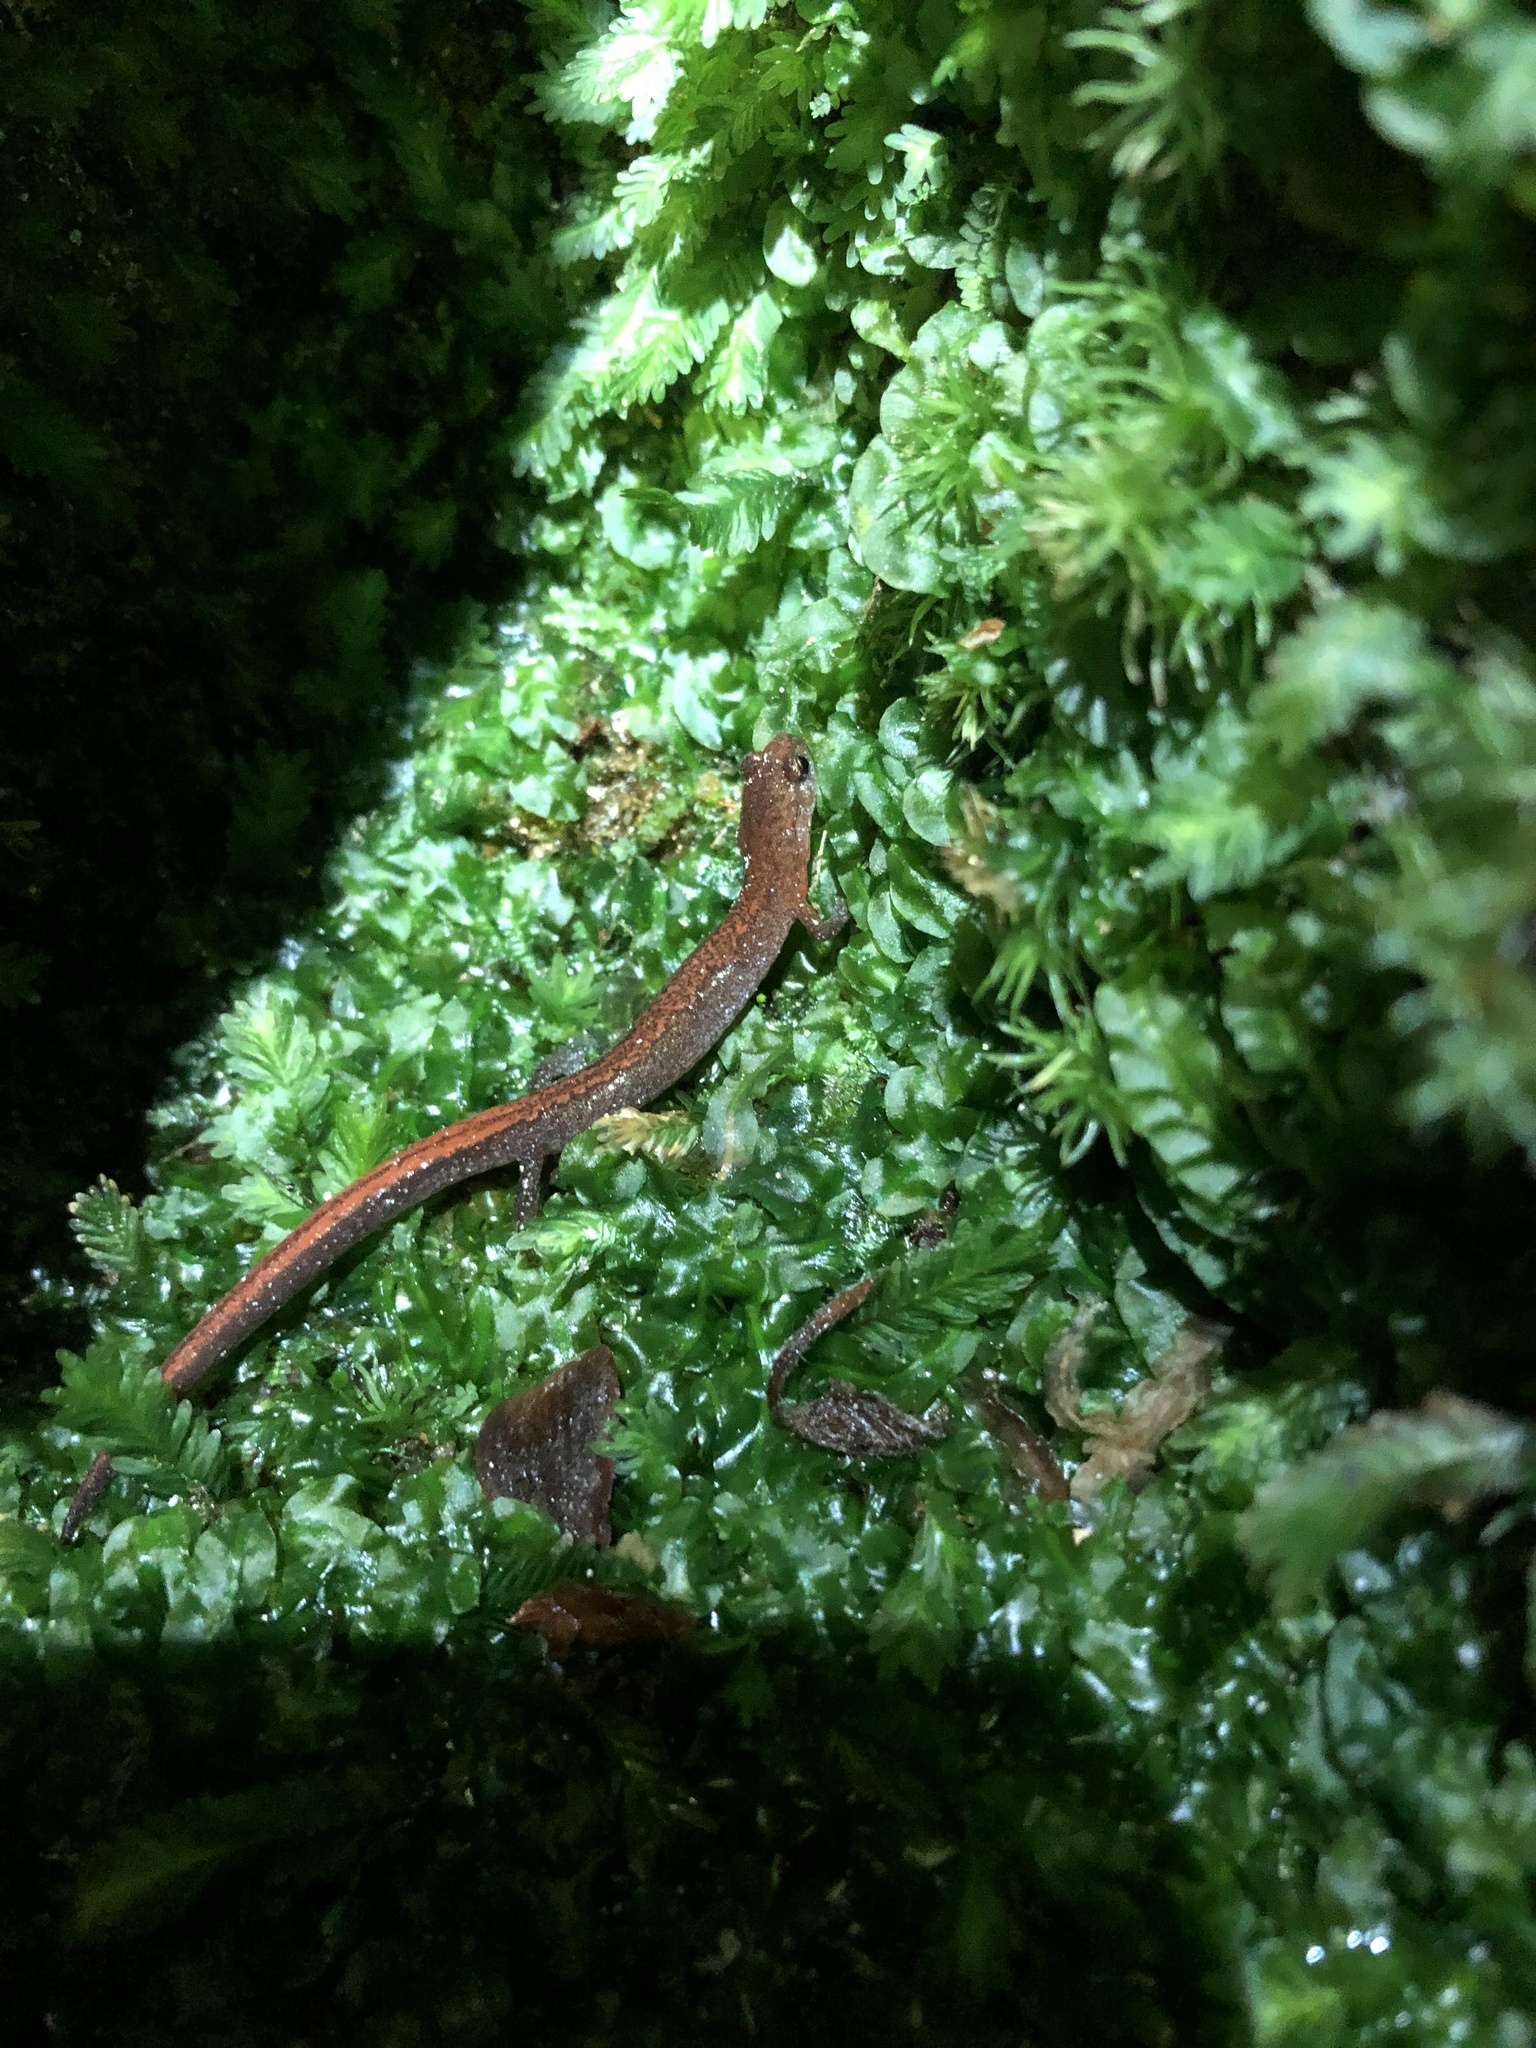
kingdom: Animalia
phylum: Chordata
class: Amphibia
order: Caudata
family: Plethodontidae
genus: Plethodon
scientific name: Plethodon ventralis
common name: Southern zigzag salamander
